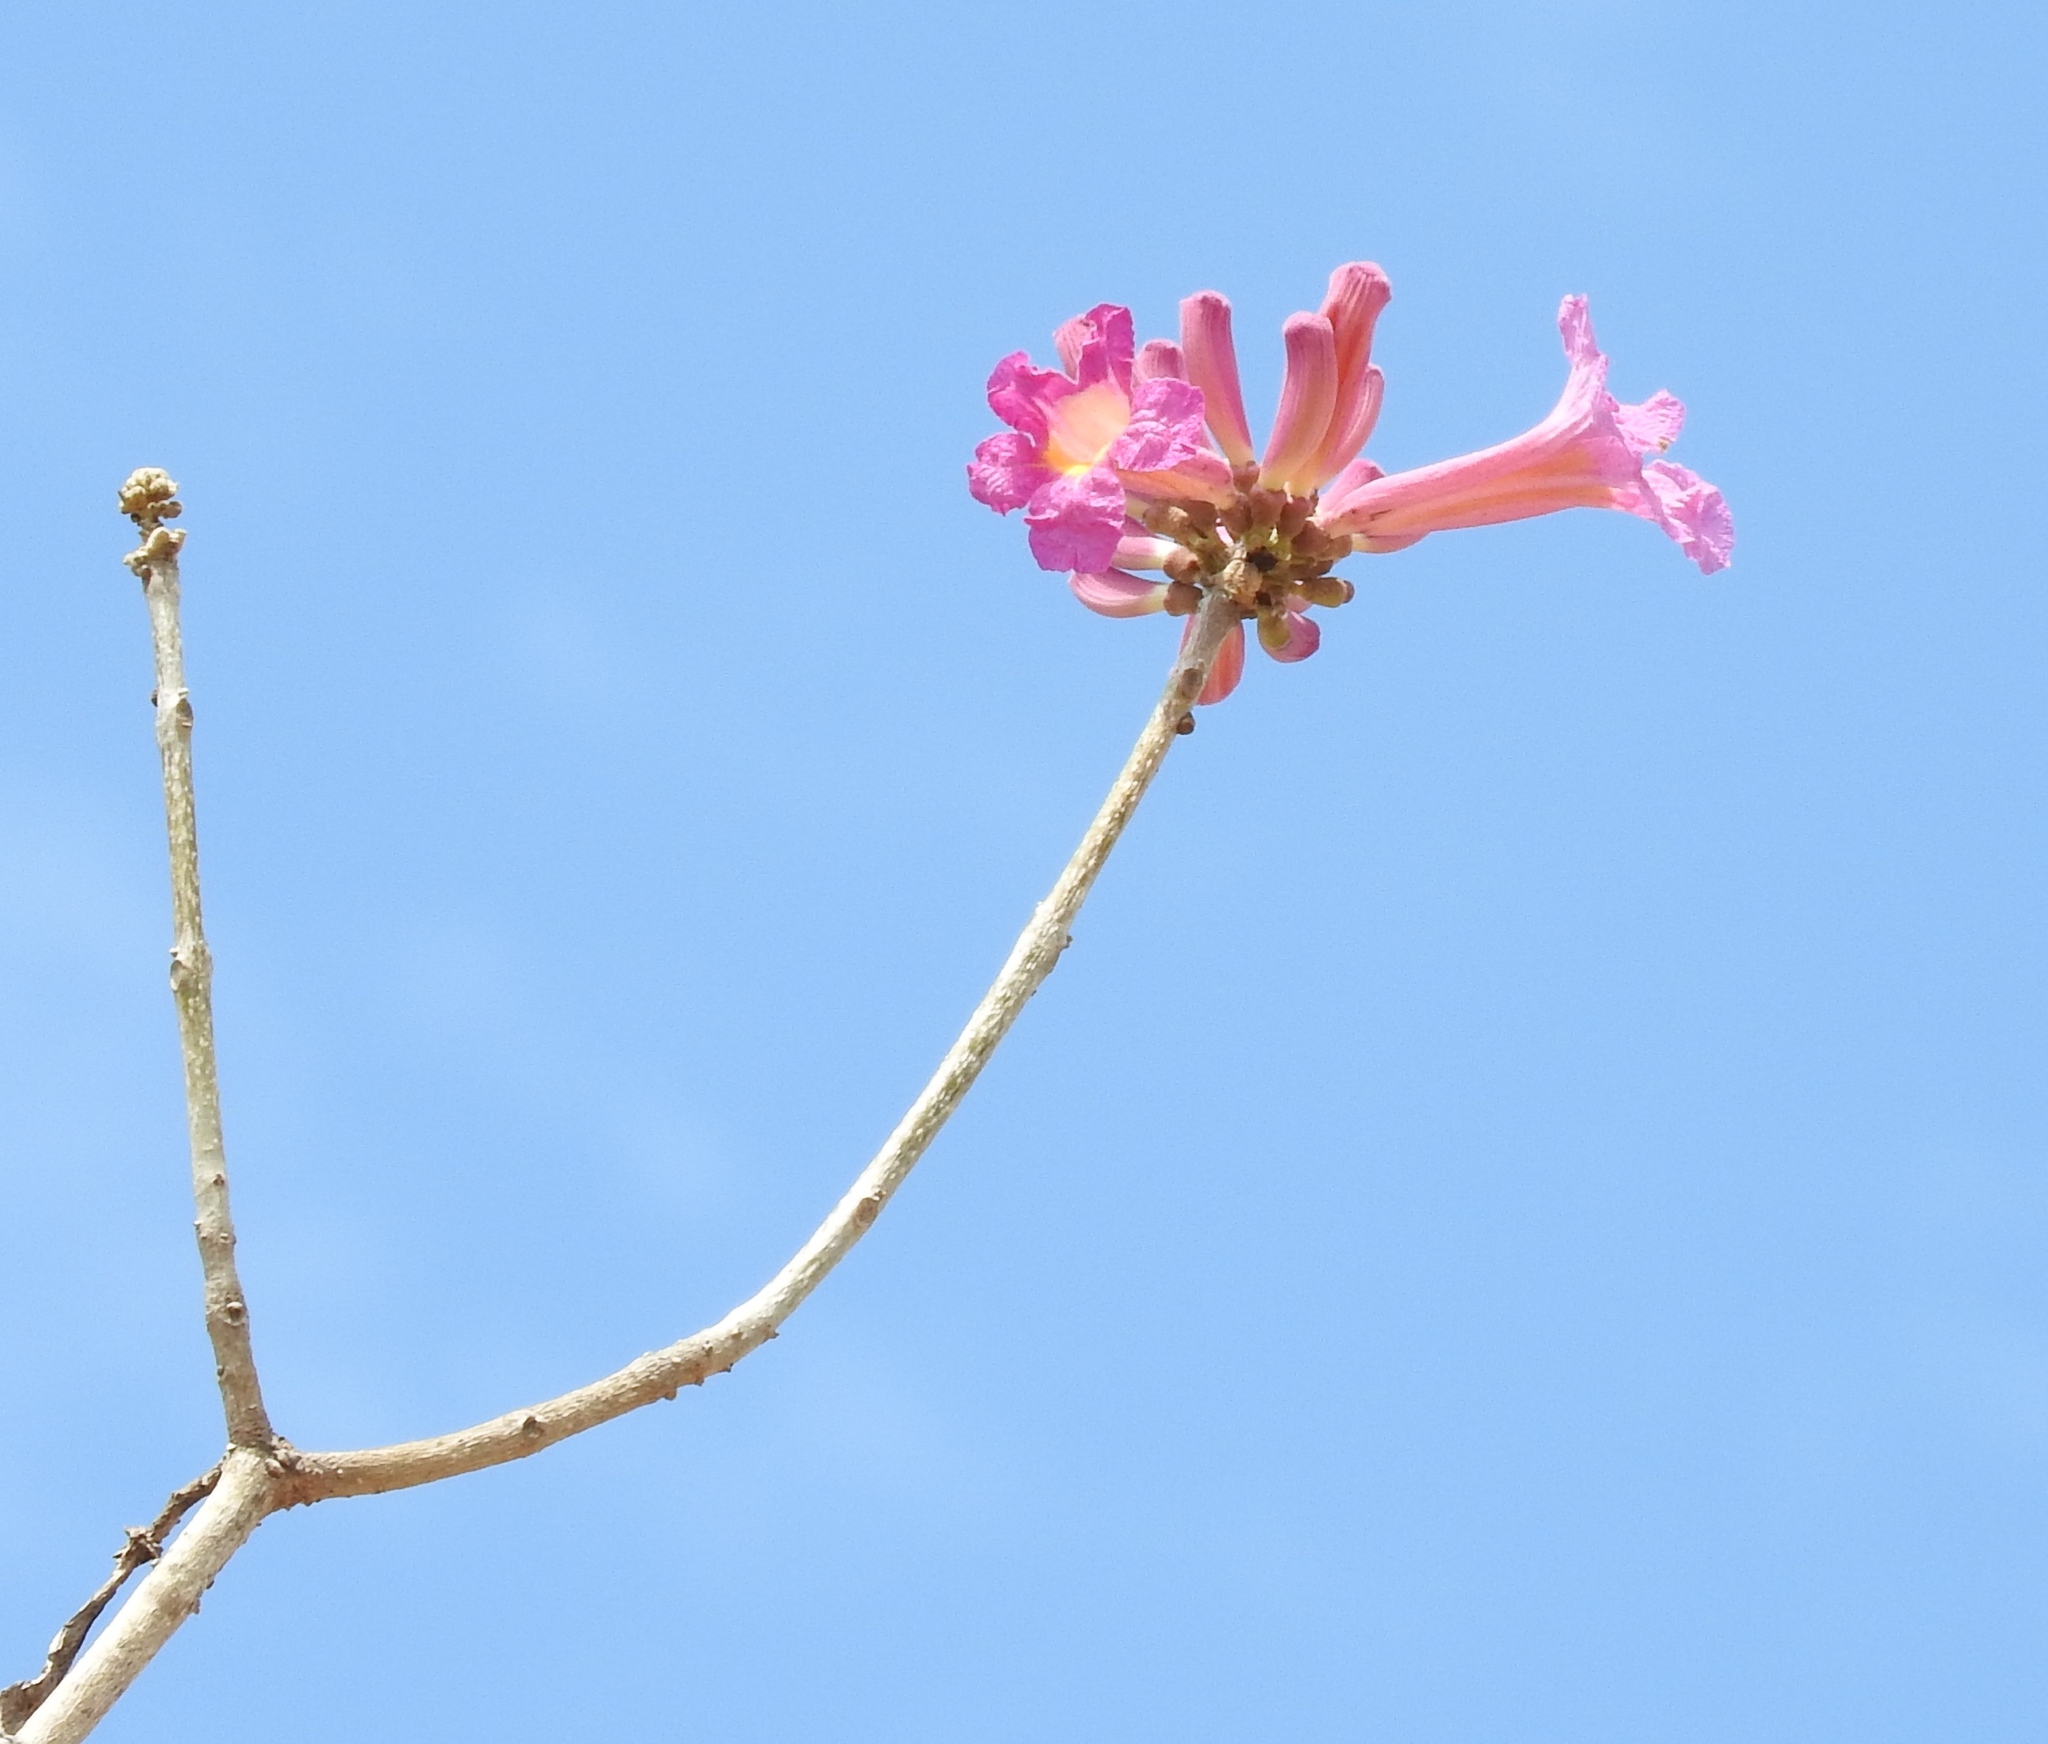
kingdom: Plantae
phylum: Tracheophyta
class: Magnoliopsida
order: Lamiales
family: Bignoniaceae
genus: Handroanthus
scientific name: Handroanthus impetiginosum
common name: Pink trumpet tree
